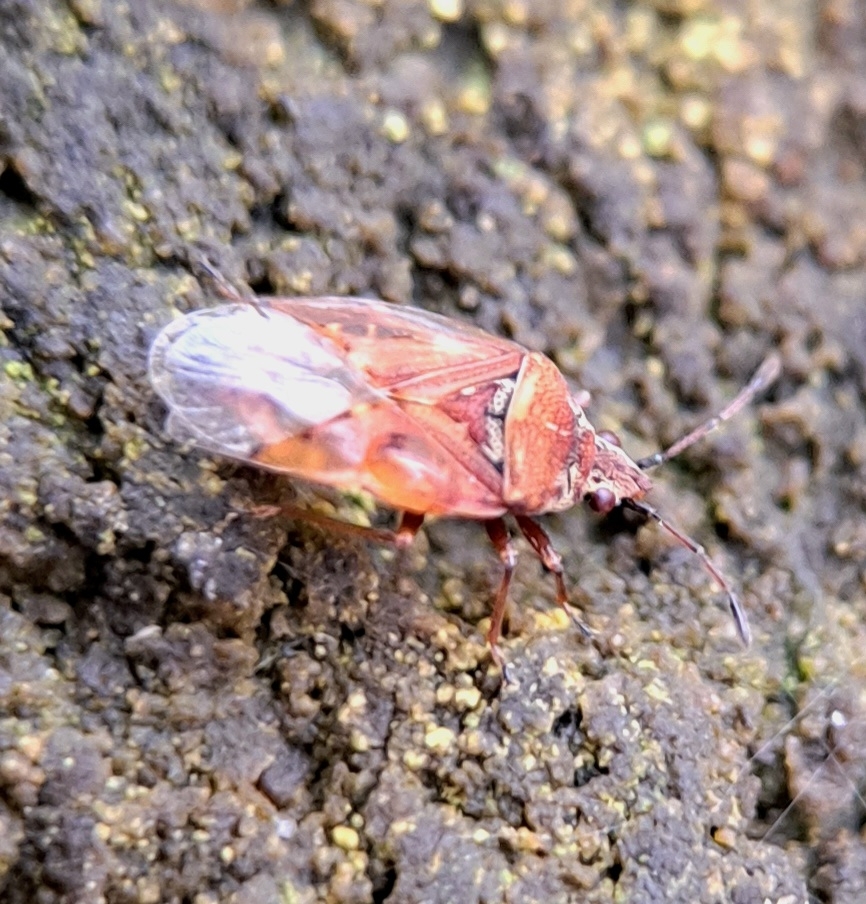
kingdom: Animalia
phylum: Arthropoda
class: Insecta
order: Hemiptera
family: Lygaeidae
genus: Kleidocerys
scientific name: Kleidocerys resedae
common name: Birch catkin bug
